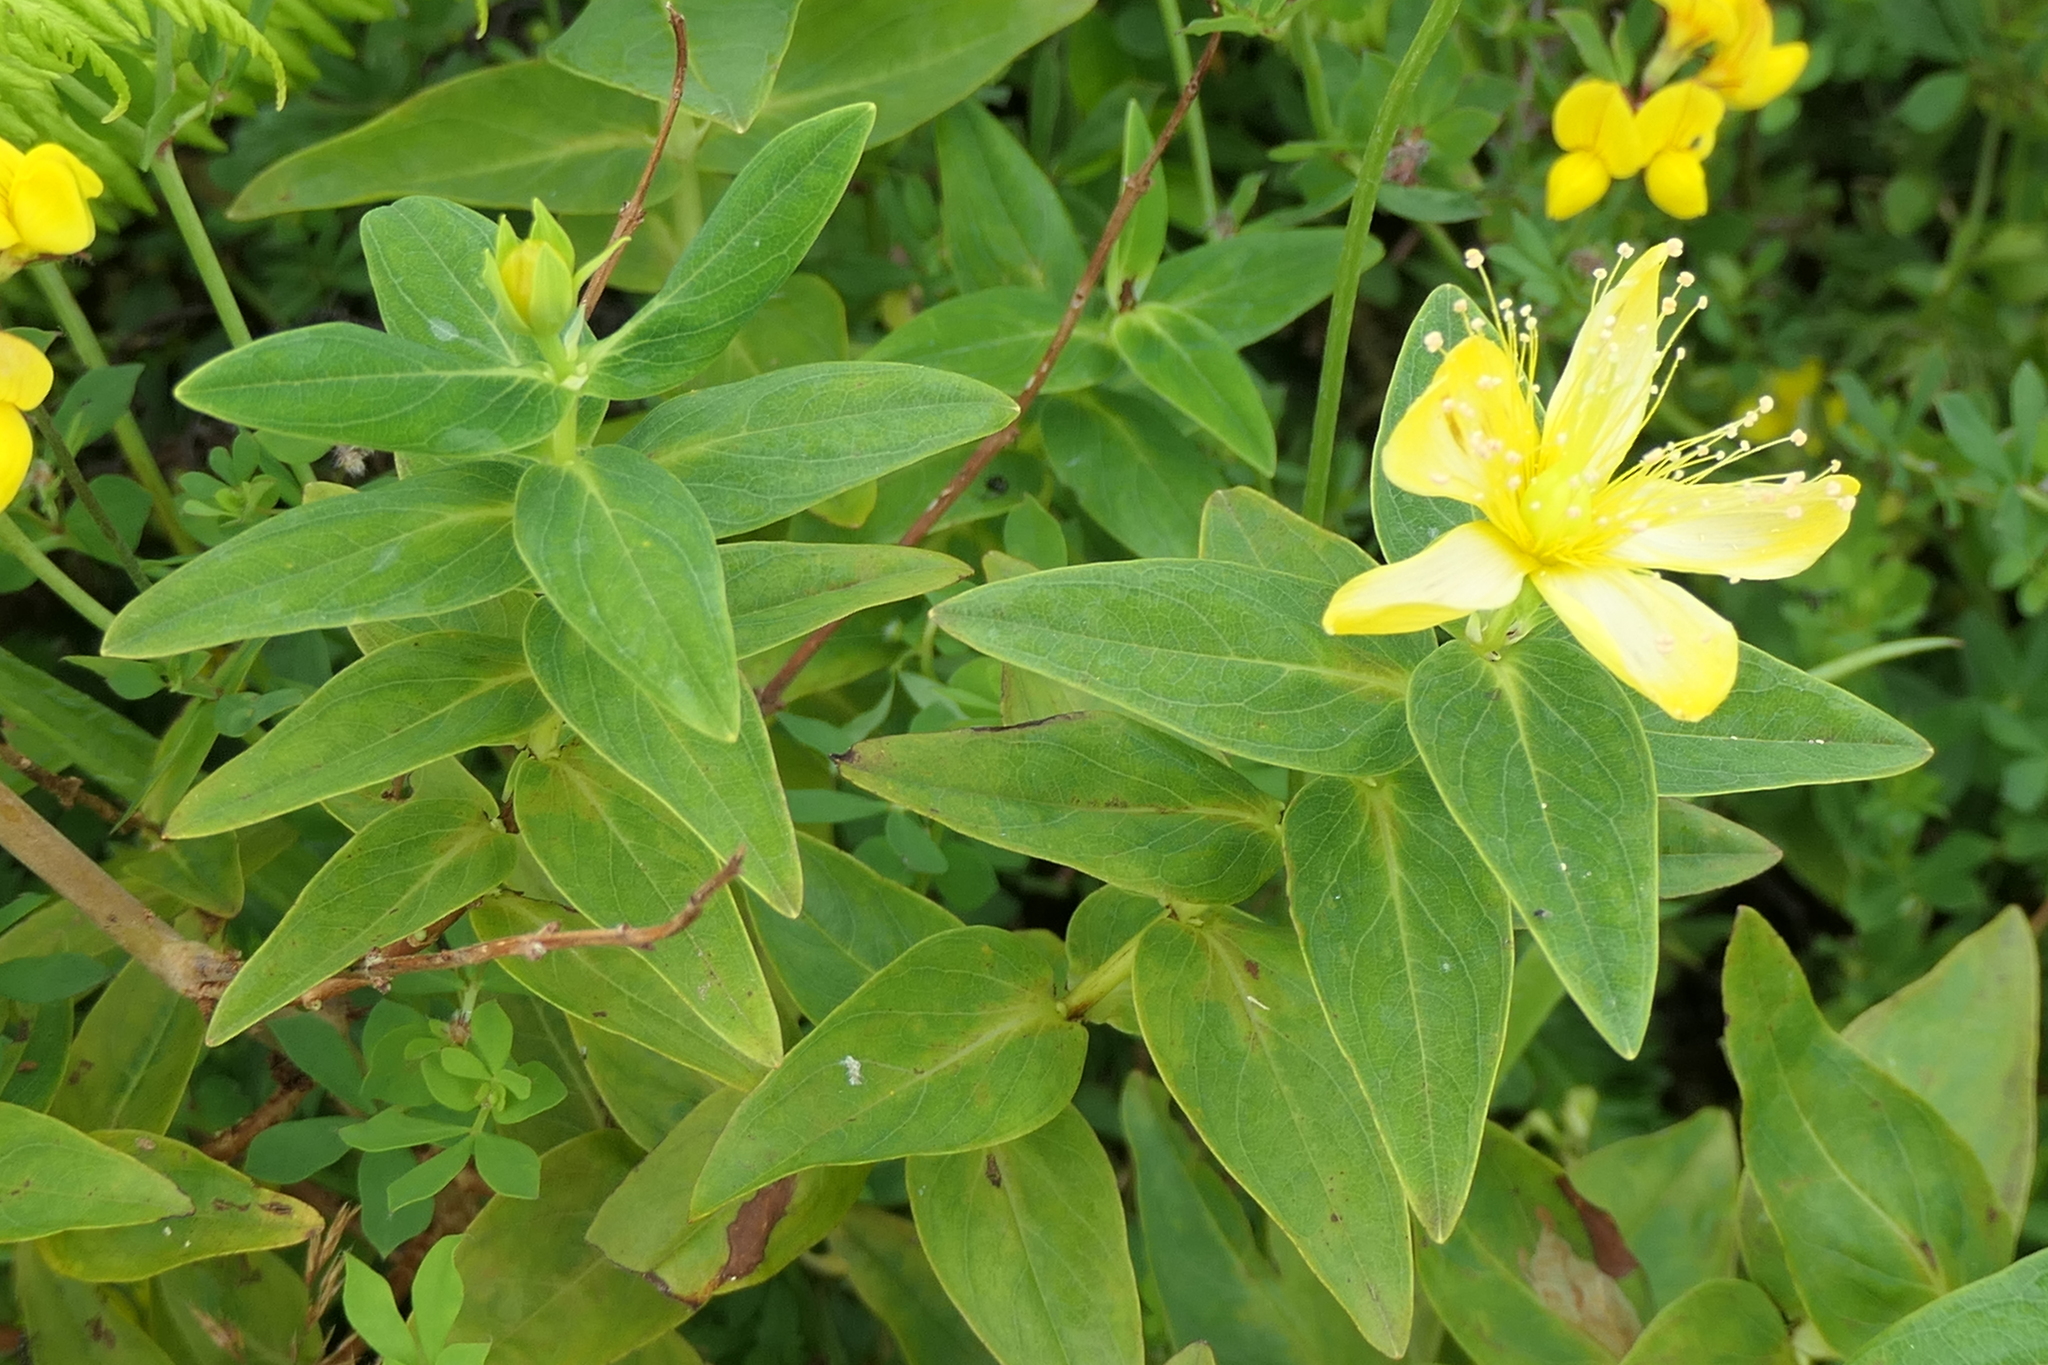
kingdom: Plantae
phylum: Tracheophyta
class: Magnoliopsida
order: Malpighiales
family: Hypericaceae
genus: Hypericum
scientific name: Hypericum foliosum
